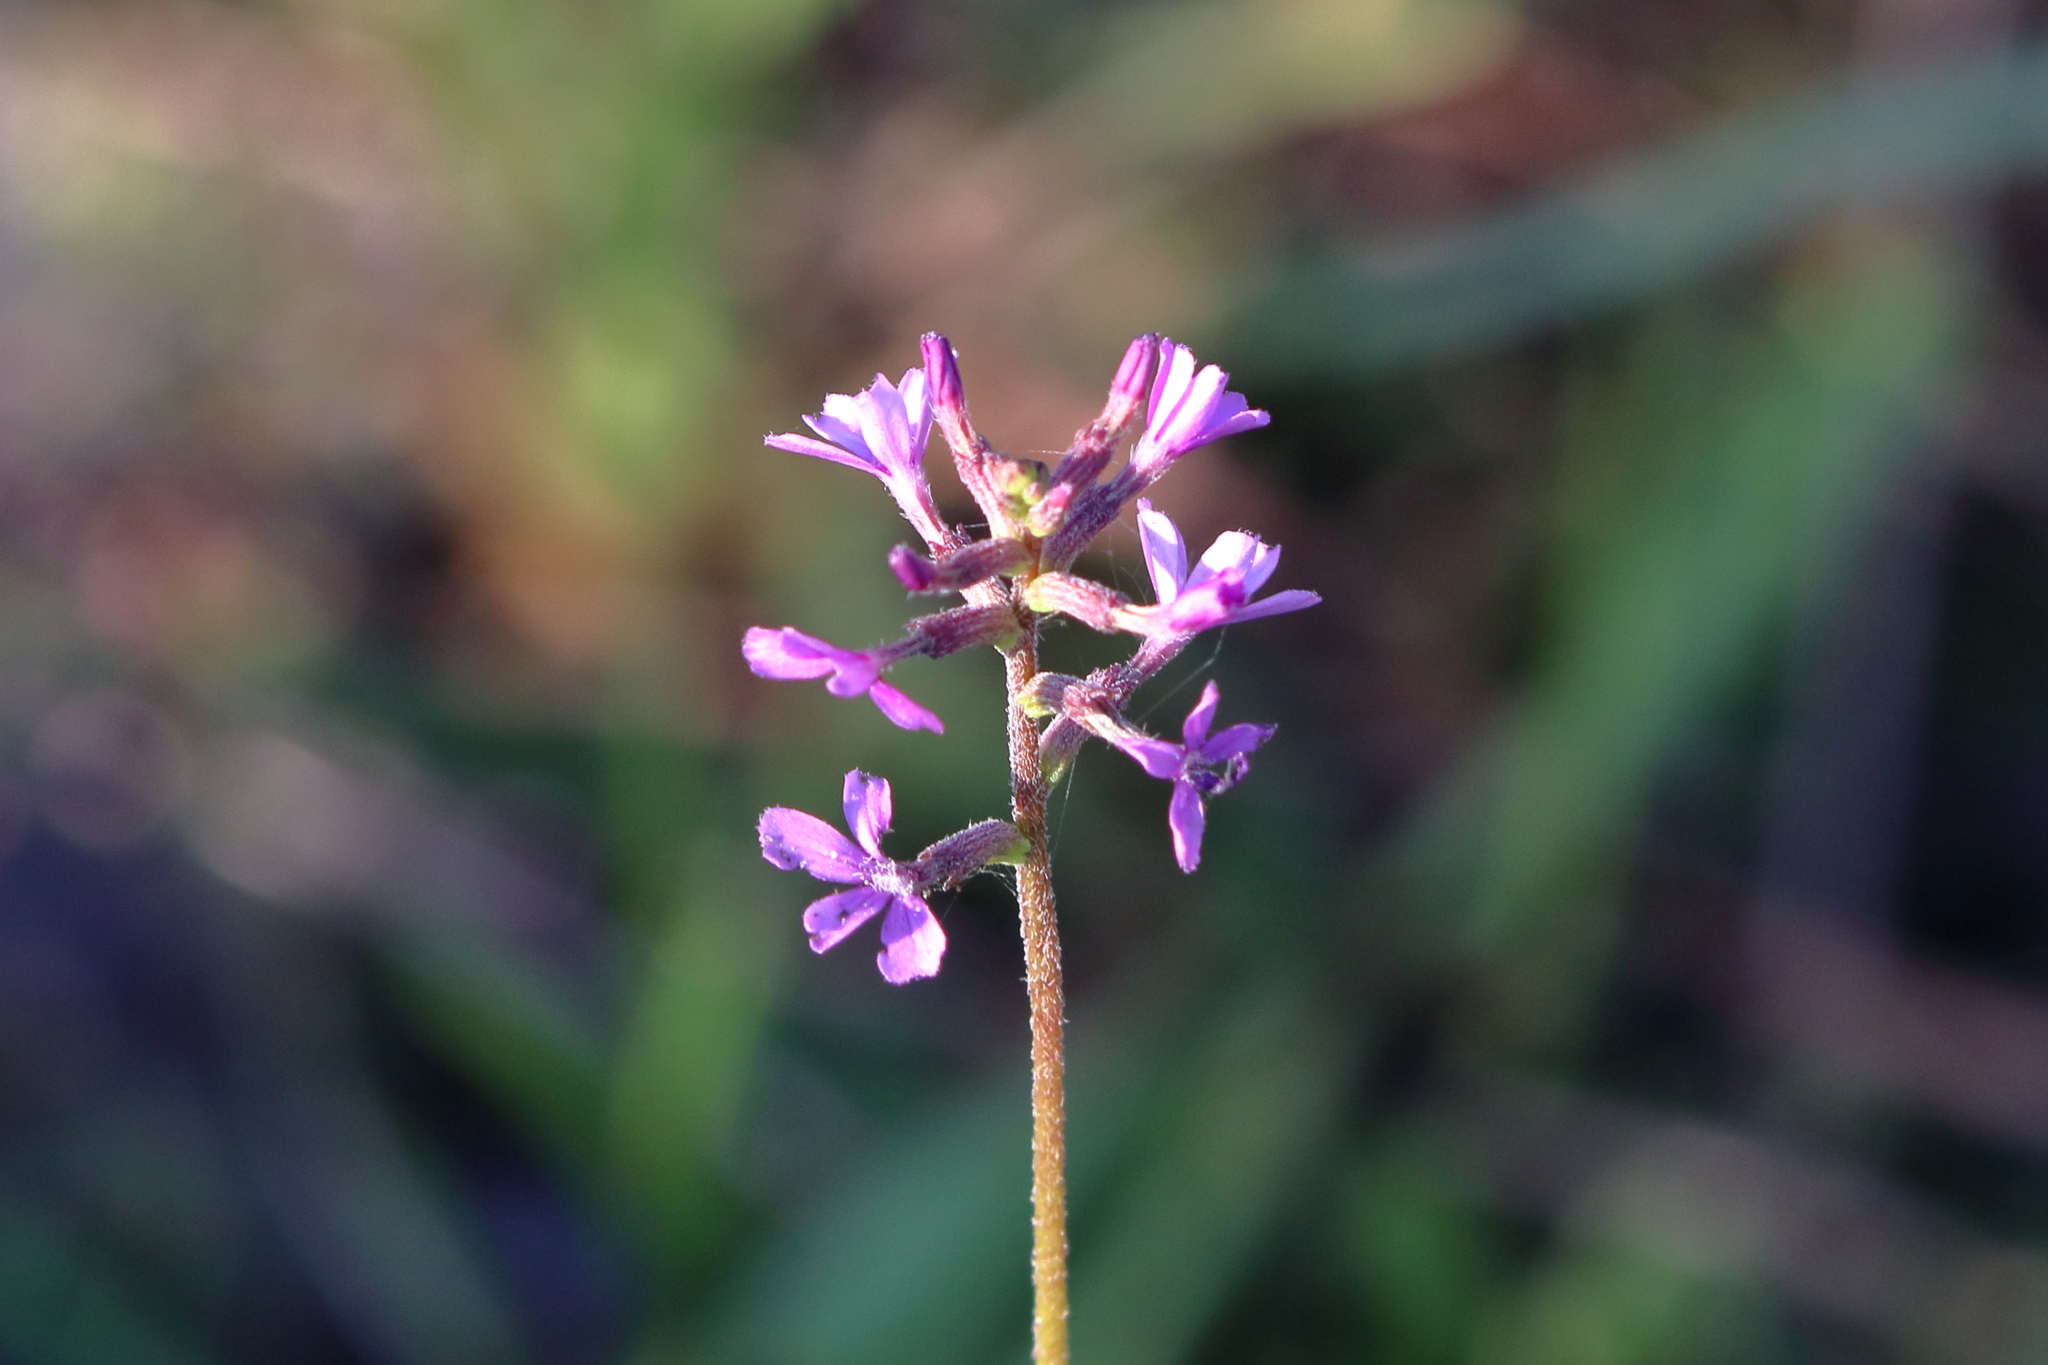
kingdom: Plantae
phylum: Tracheophyta
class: Magnoliopsida
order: Lamiales
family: Orobanchaceae
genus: Buchnera
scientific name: Buchnera floridana
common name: Florida bluehearts
